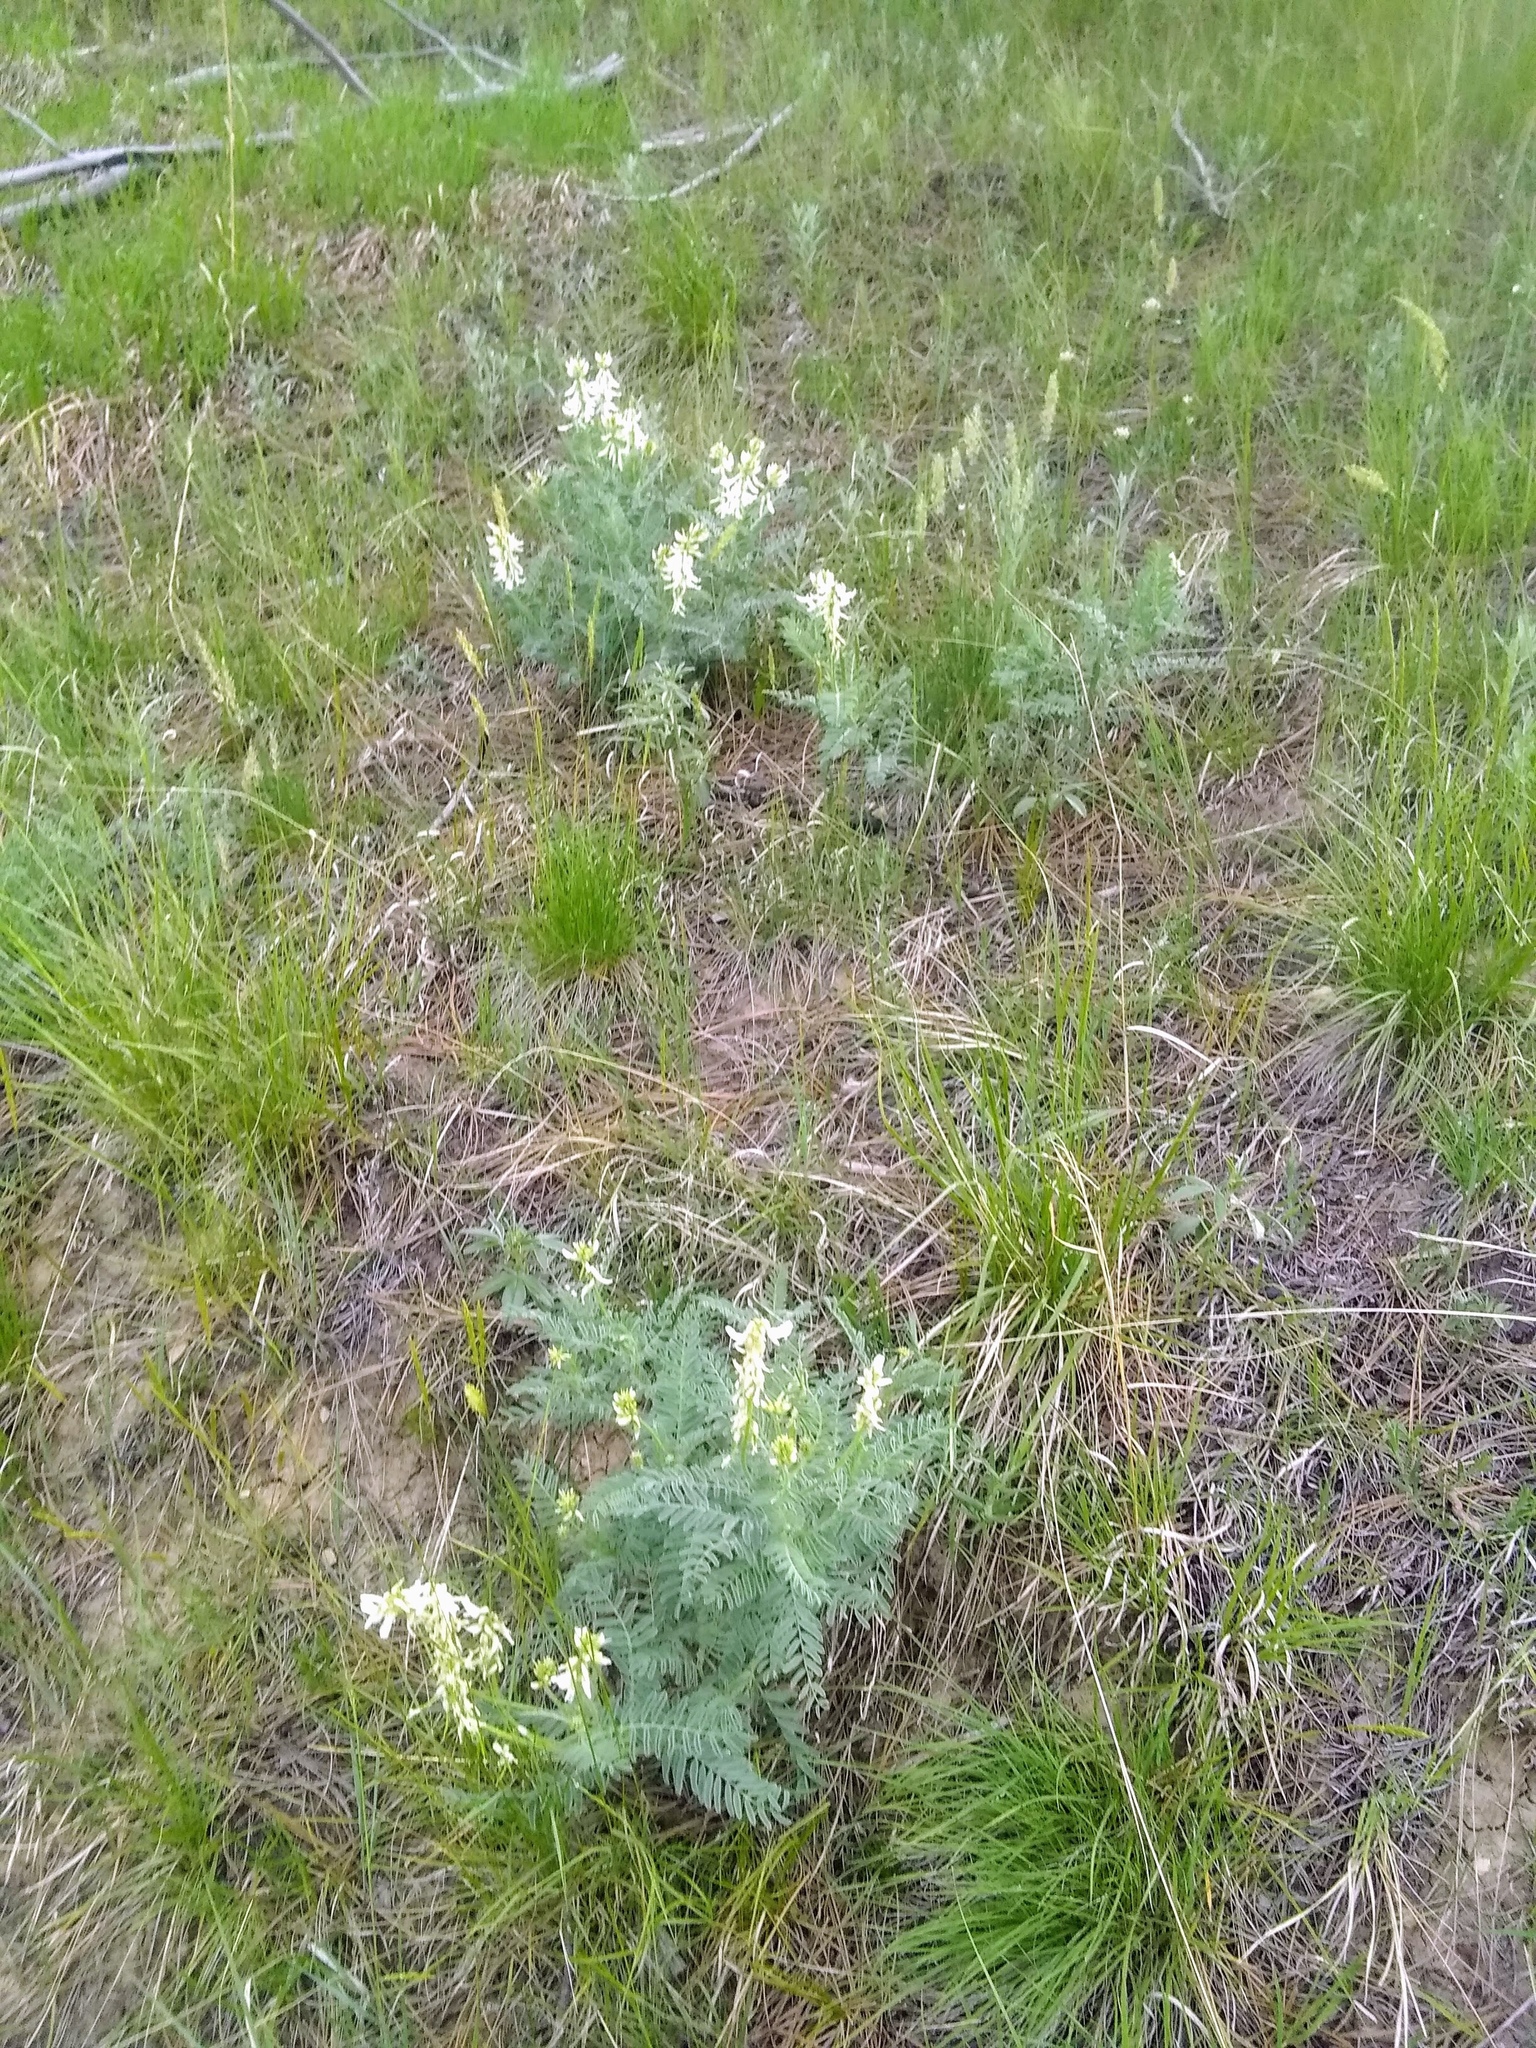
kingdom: Plantae
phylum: Tracheophyta
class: Magnoliopsida
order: Fabales
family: Fabaceae
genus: Astragalus
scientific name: Astragalus drummondii
